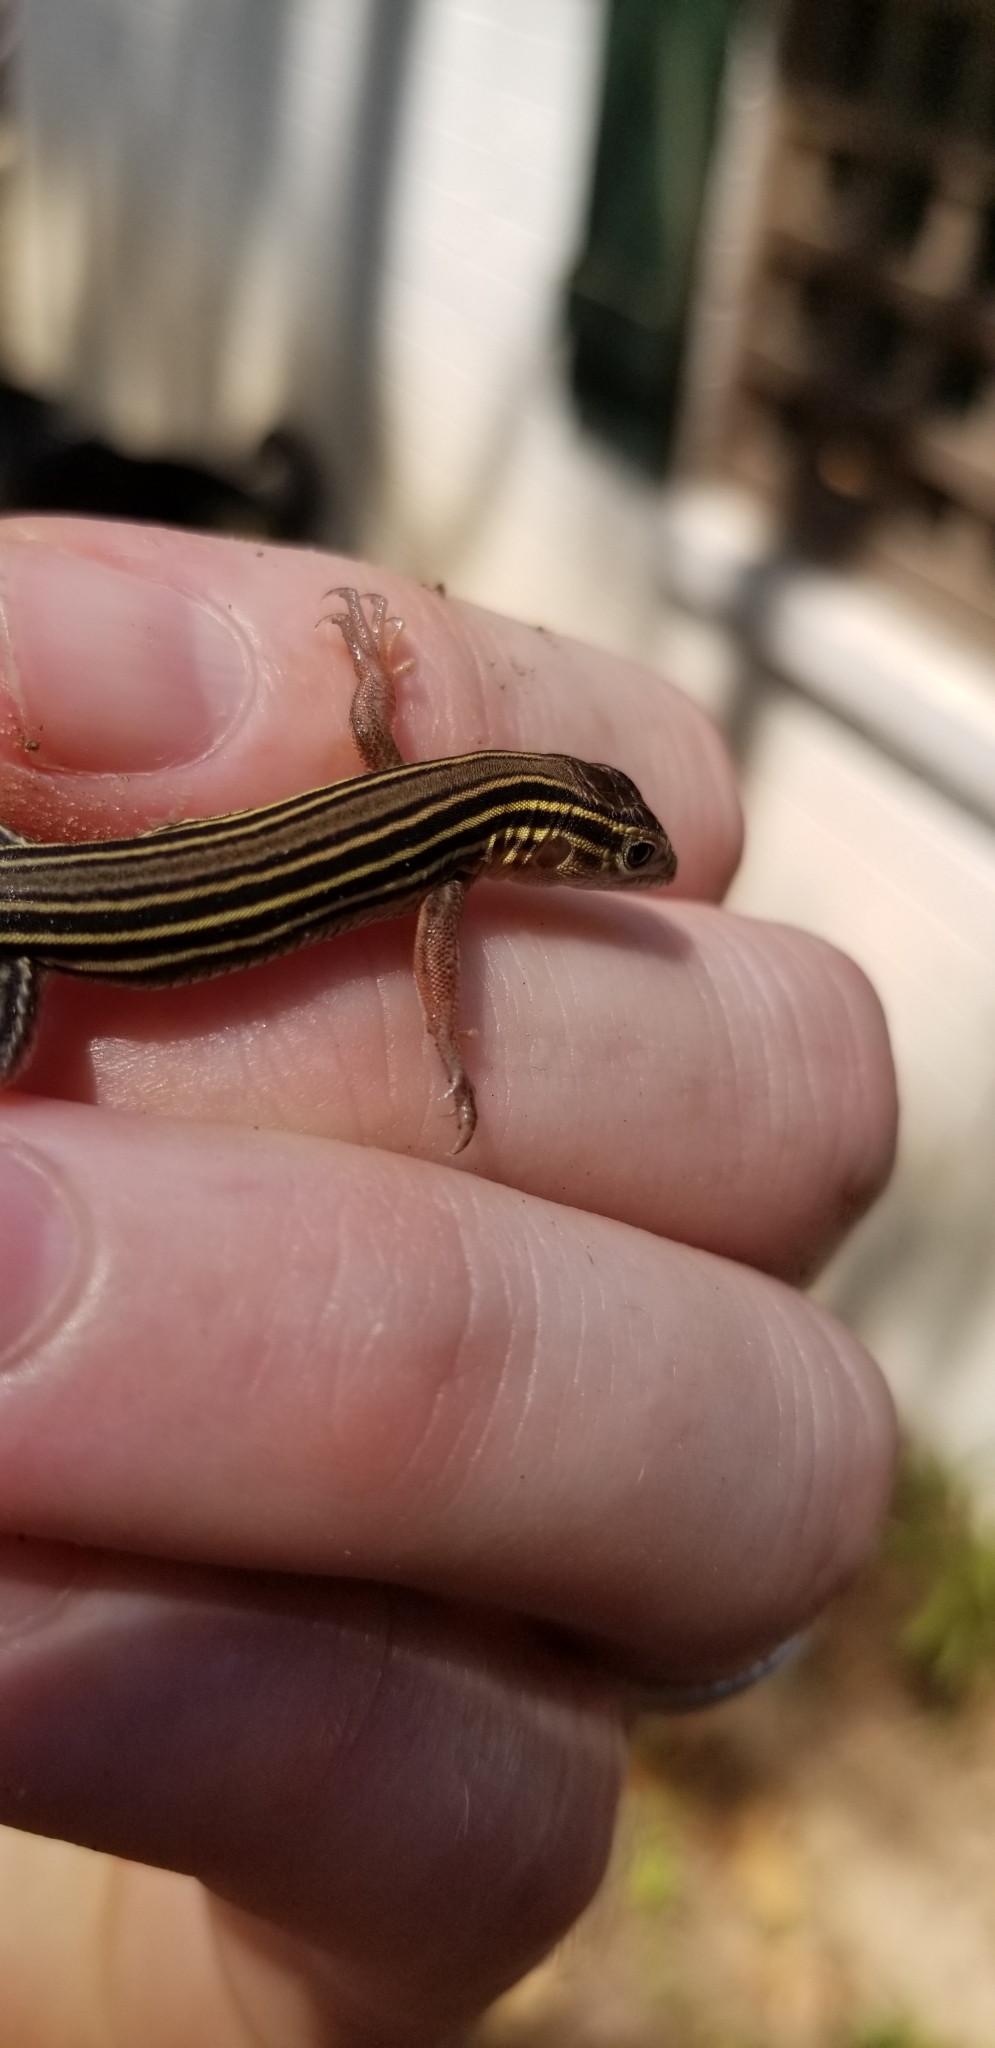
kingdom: Animalia
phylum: Chordata
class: Squamata
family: Teiidae
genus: Aspidoscelis
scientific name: Aspidoscelis sexlineatus
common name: Six-lined racerunner
